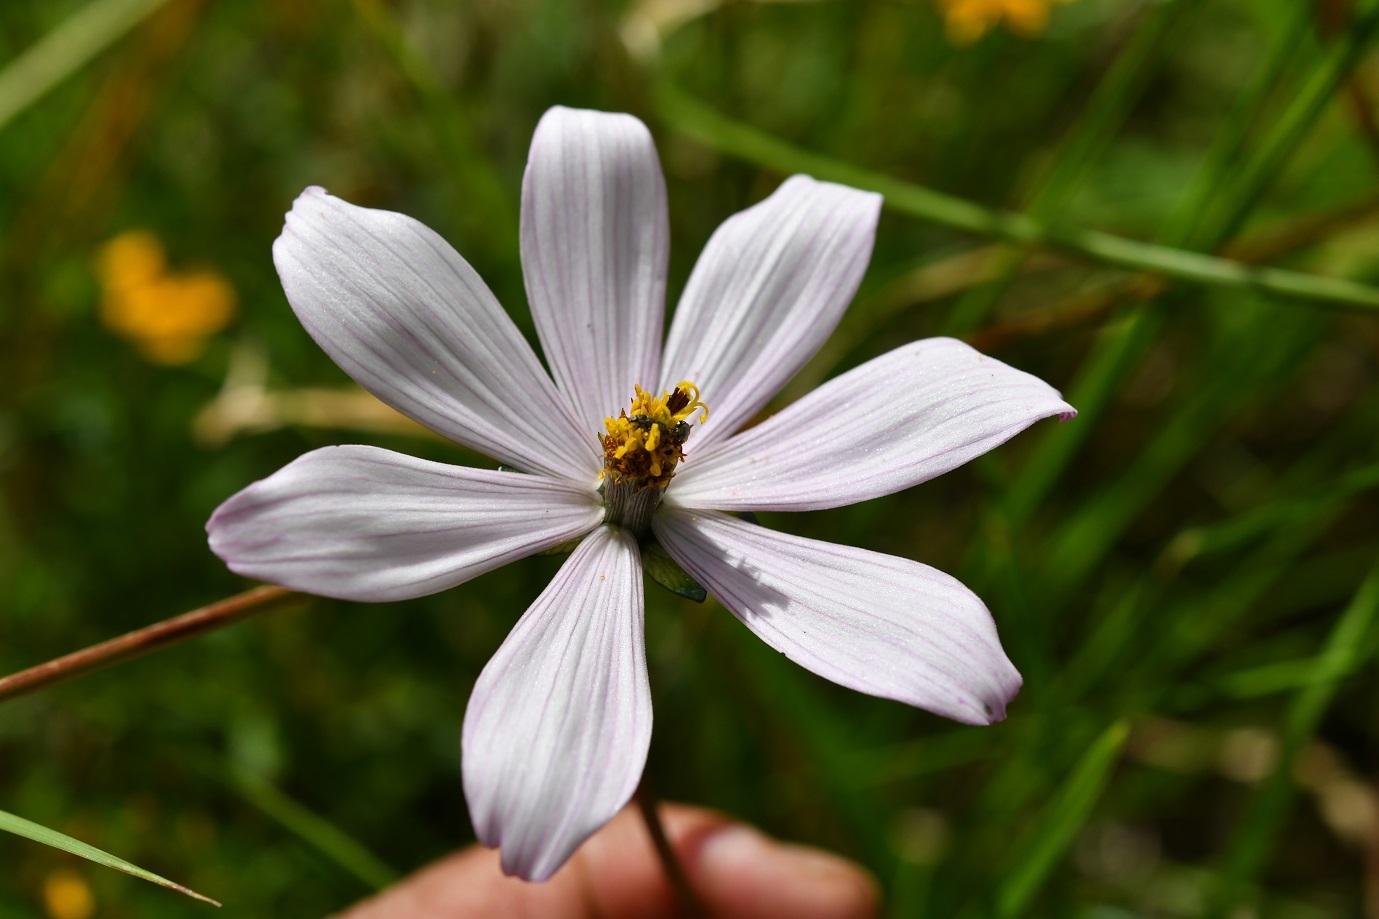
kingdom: Plantae
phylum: Tracheophyta
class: Magnoliopsida
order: Asterales
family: Asteraceae
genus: Cosmos
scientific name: Cosmos diversifolius
